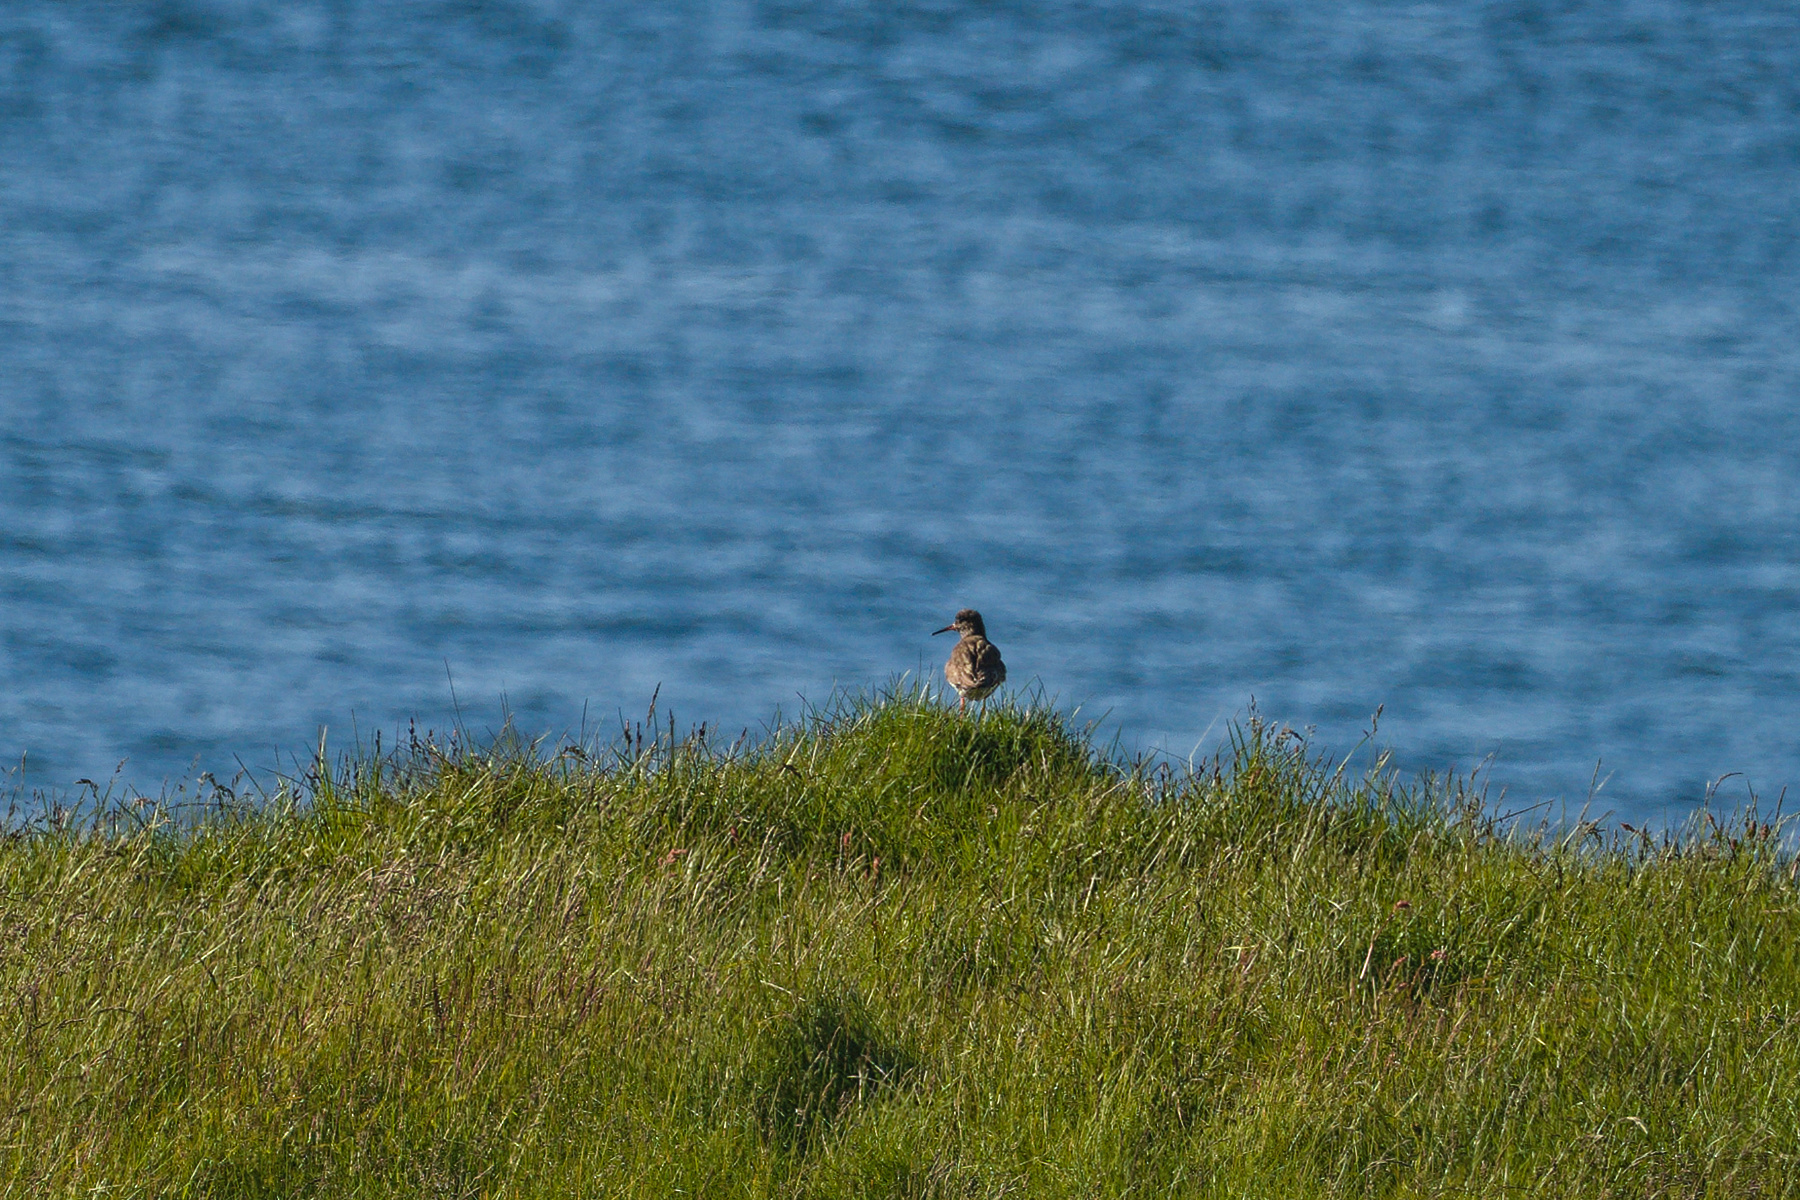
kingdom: Animalia
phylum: Chordata
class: Aves
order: Charadriiformes
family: Scolopacidae
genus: Tringa
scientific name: Tringa totanus
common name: Common redshank
